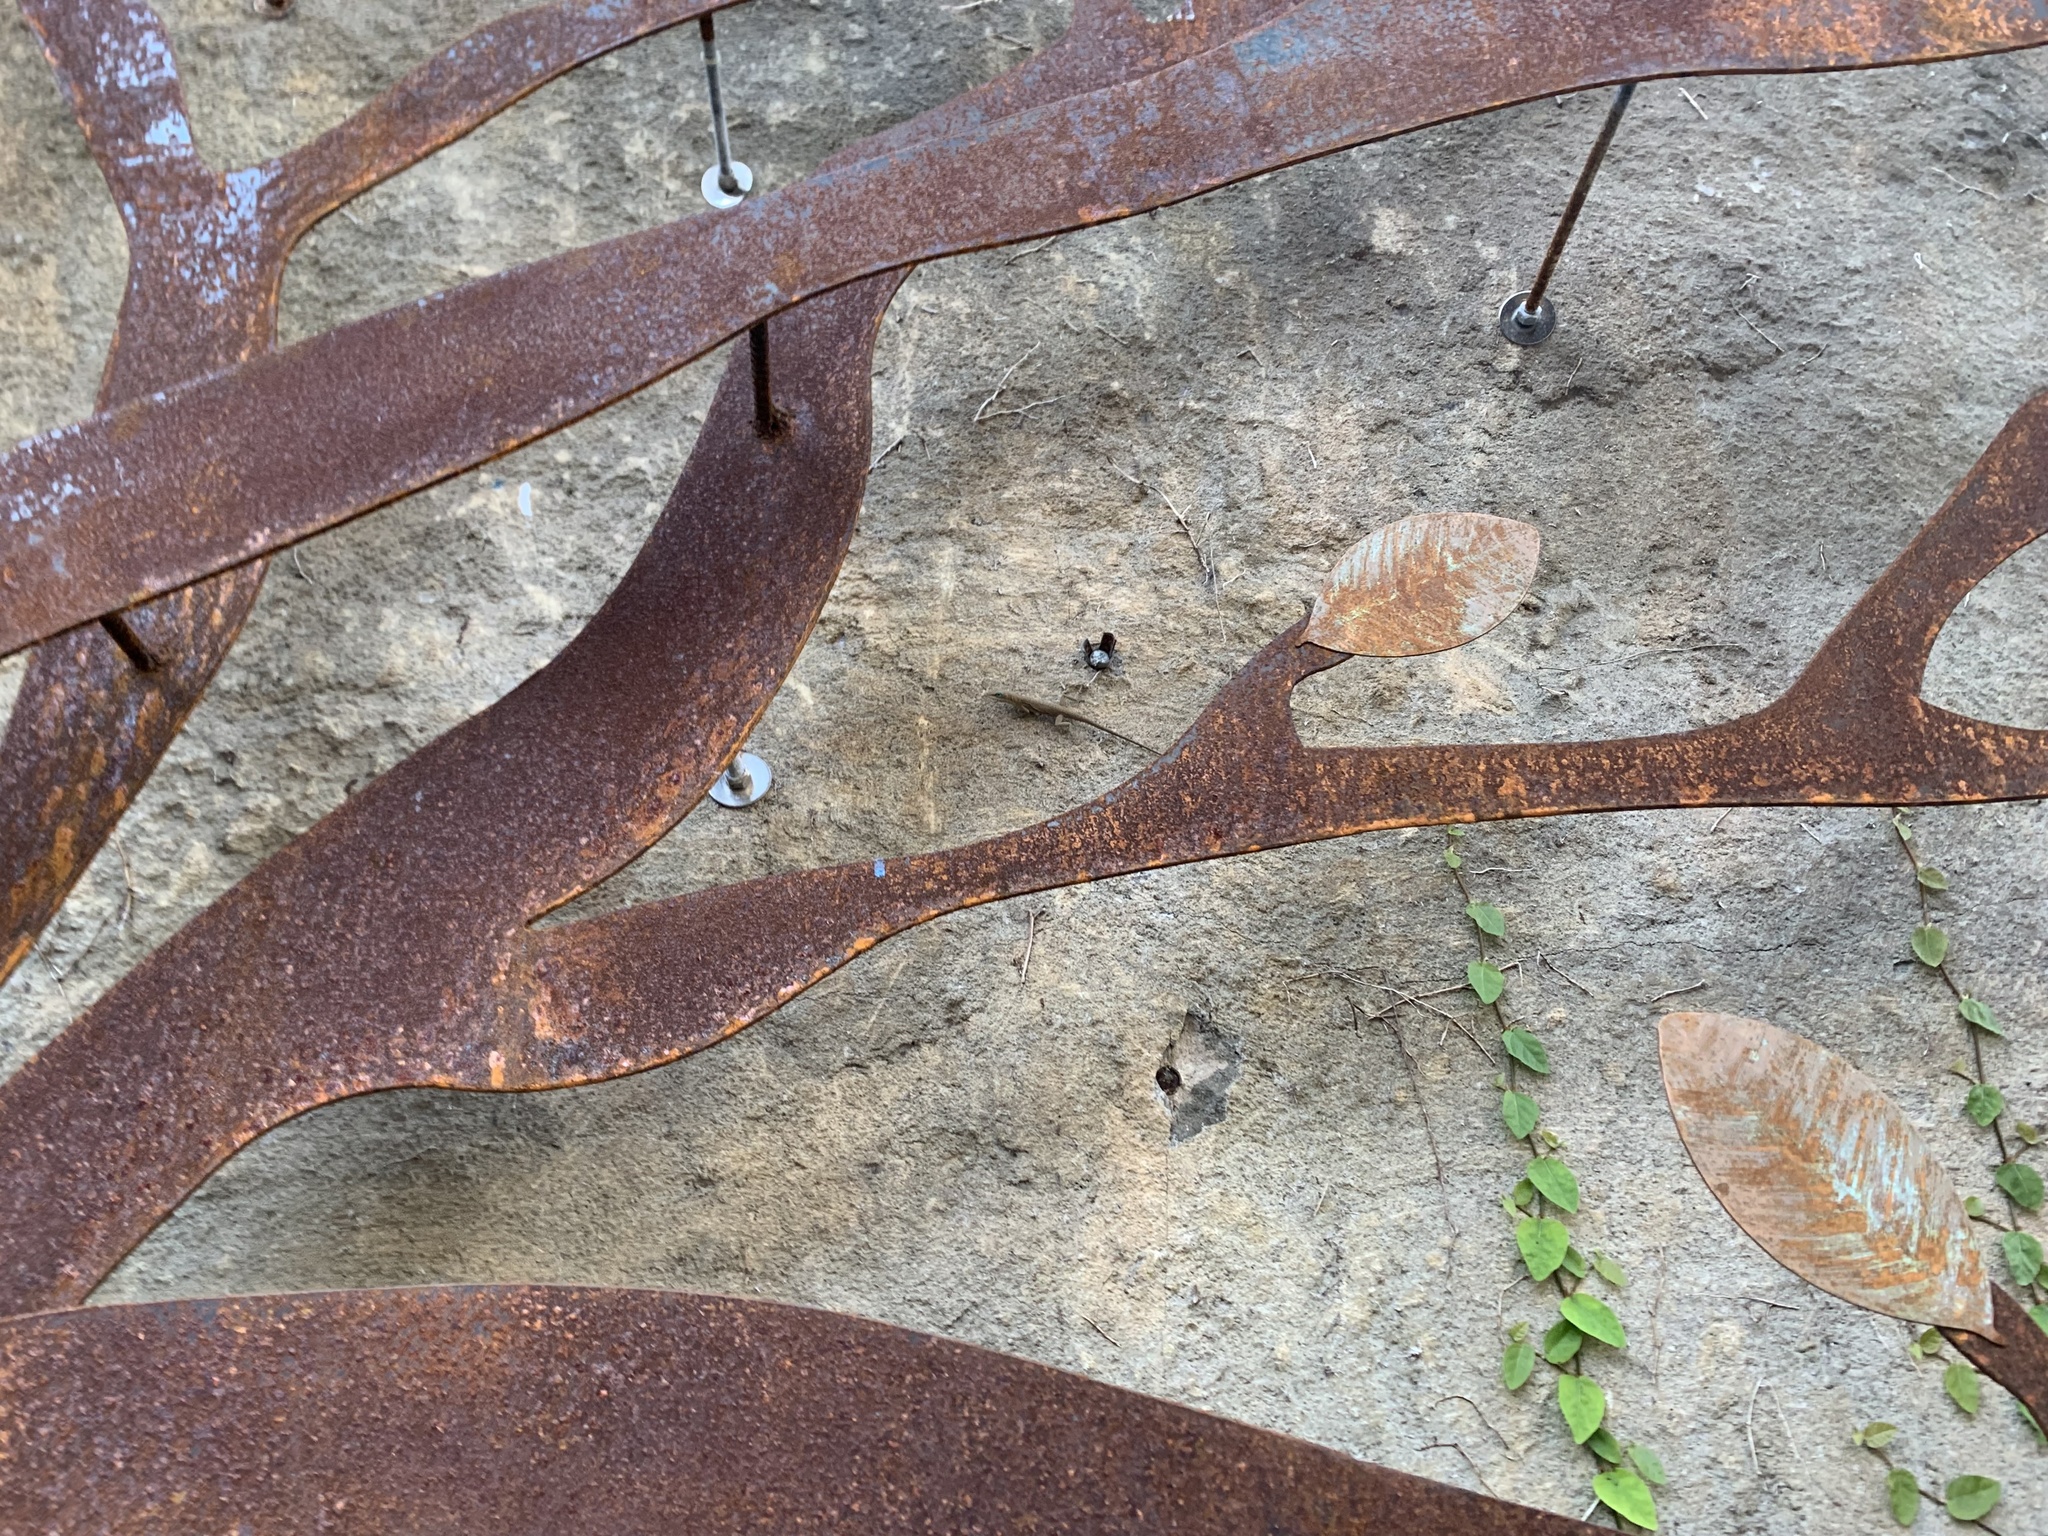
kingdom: Animalia
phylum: Chordata
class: Squamata
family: Dactyloidae
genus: Anolis
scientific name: Anolis carolinensis
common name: Green anole
